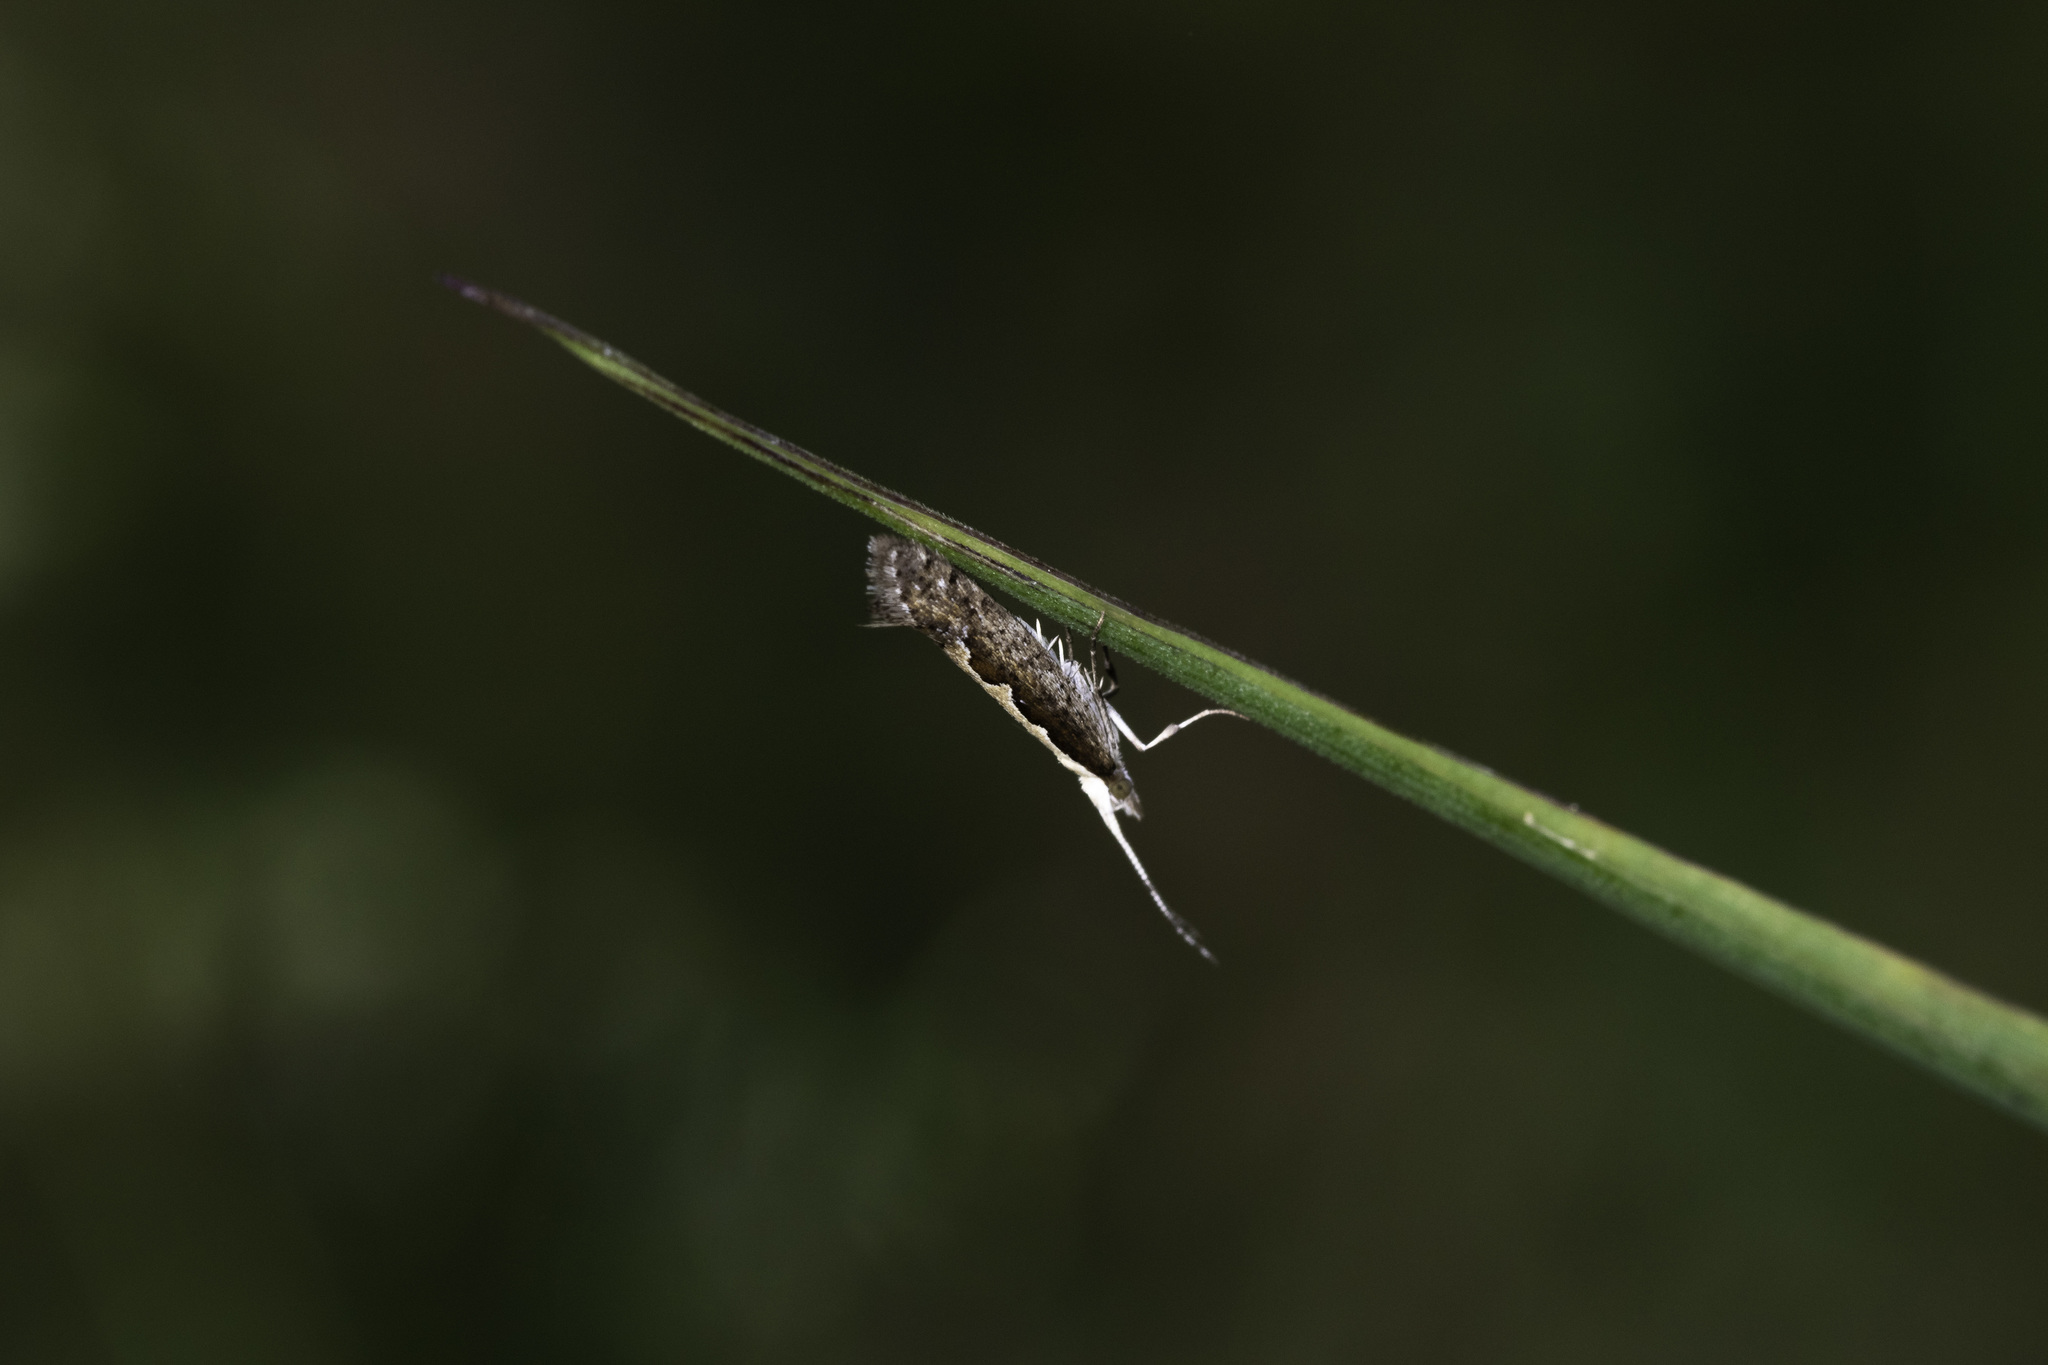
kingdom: Animalia
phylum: Arthropoda
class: Insecta
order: Lepidoptera
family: Plutellidae
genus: Plutella
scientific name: Plutella xylostella
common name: Diamond-back moth
